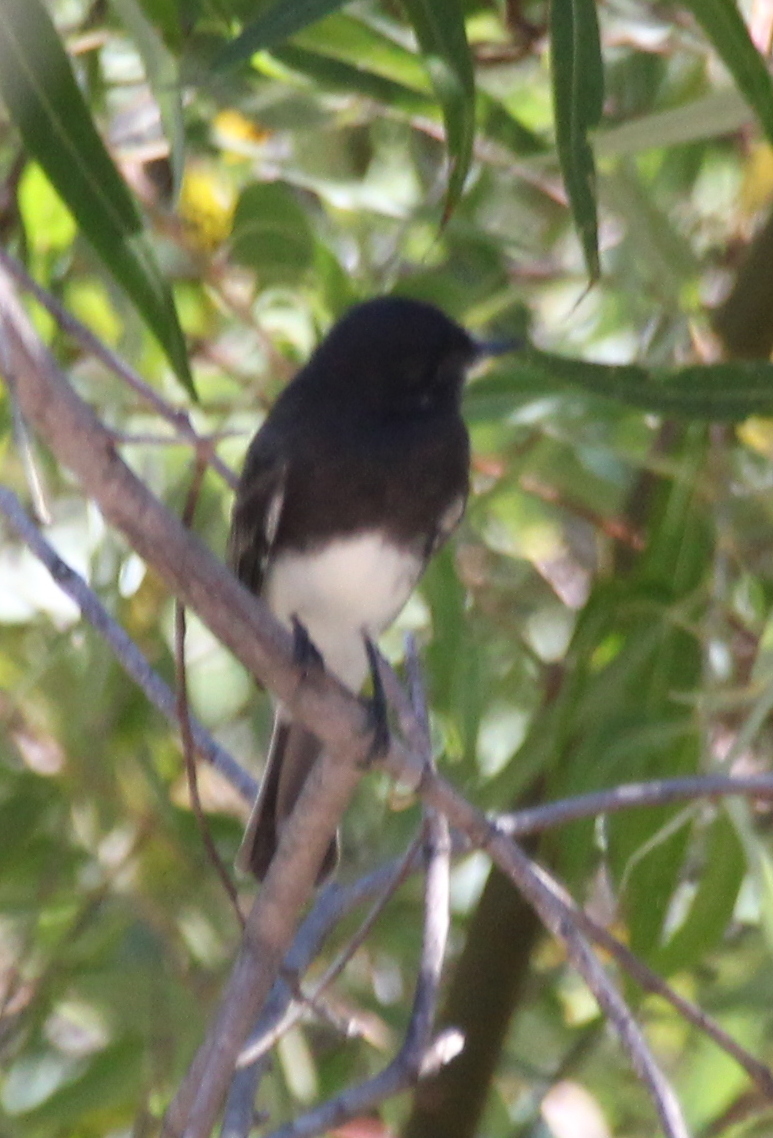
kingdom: Animalia
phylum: Chordata
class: Aves
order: Passeriformes
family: Tyrannidae
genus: Sayornis
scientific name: Sayornis nigricans
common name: Black phoebe
